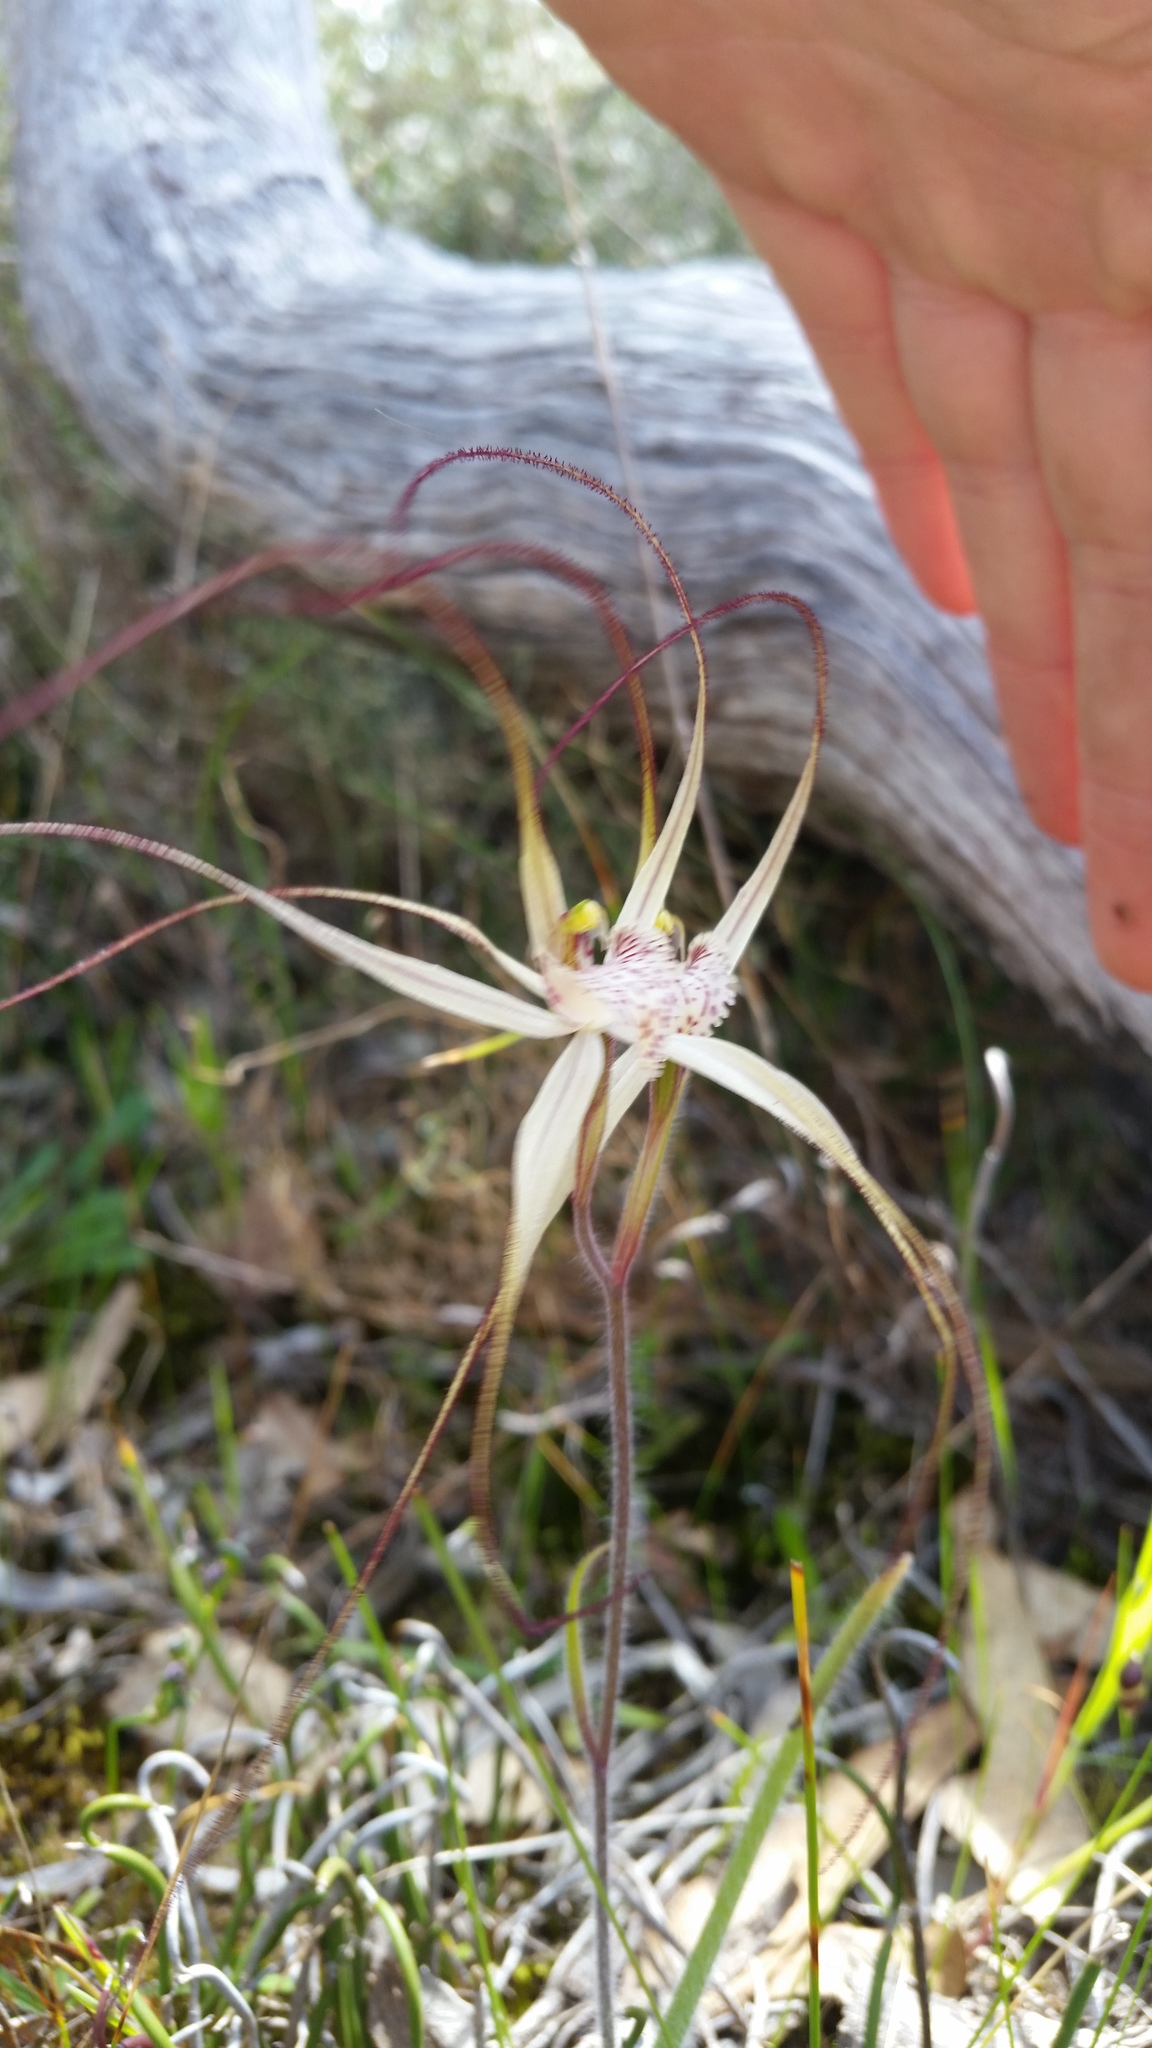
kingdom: Plantae
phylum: Tracheophyta
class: Liliopsida
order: Asparagales
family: Orchidaceae
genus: Caladenia
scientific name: Caladenia polychroma
